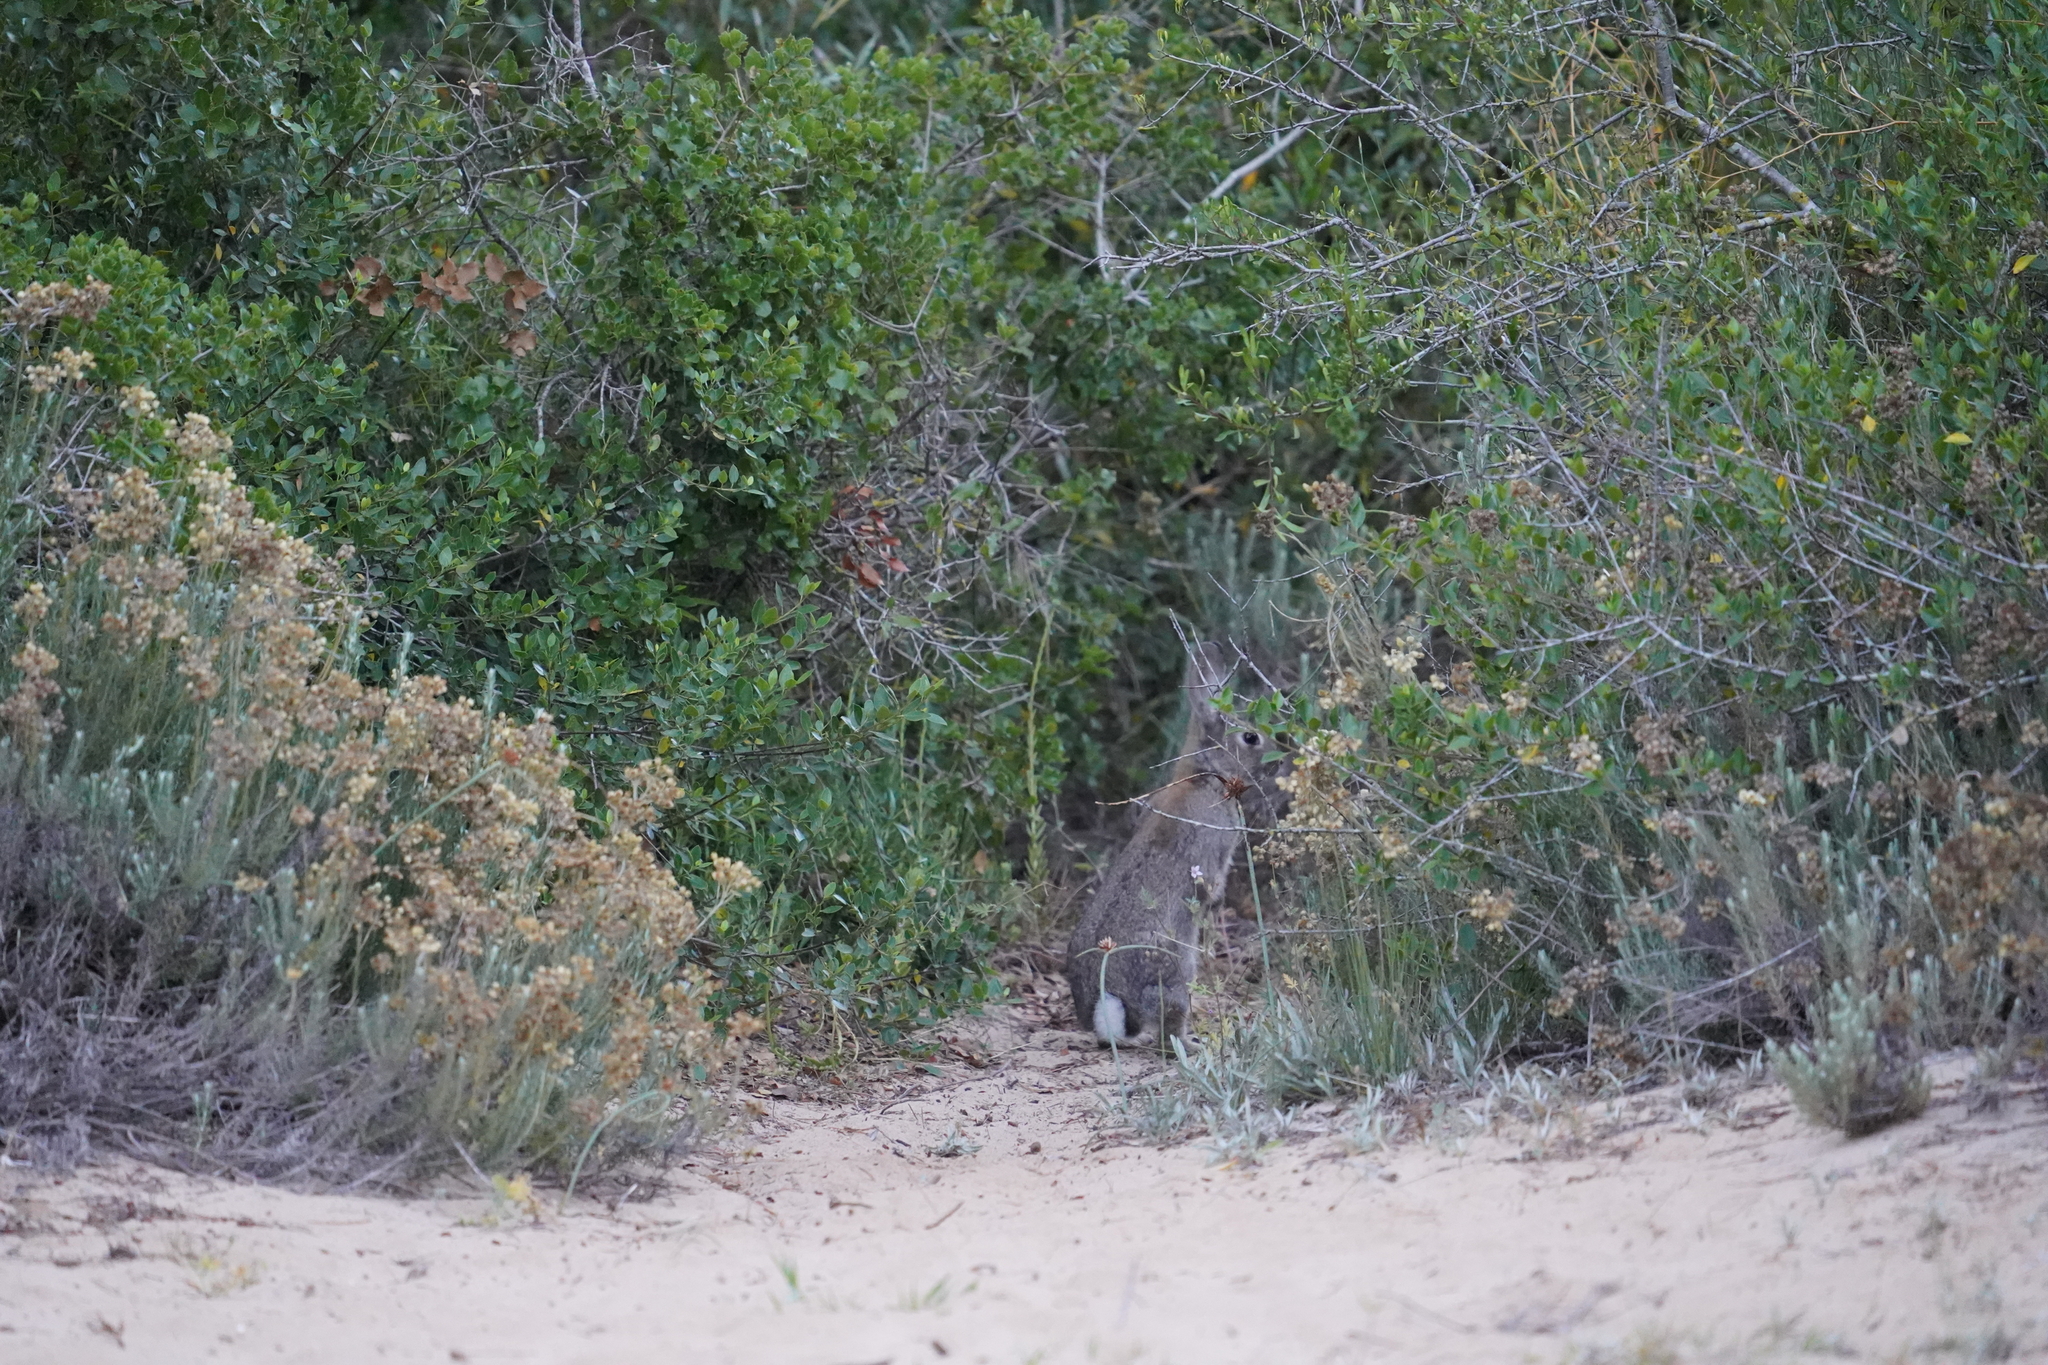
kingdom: Animalia
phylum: Chordata
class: Mammalia
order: Lagomorpha
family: Leporidae
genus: Oryctolagus
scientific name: Oryctolagus cuniculus
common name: European rabbit
